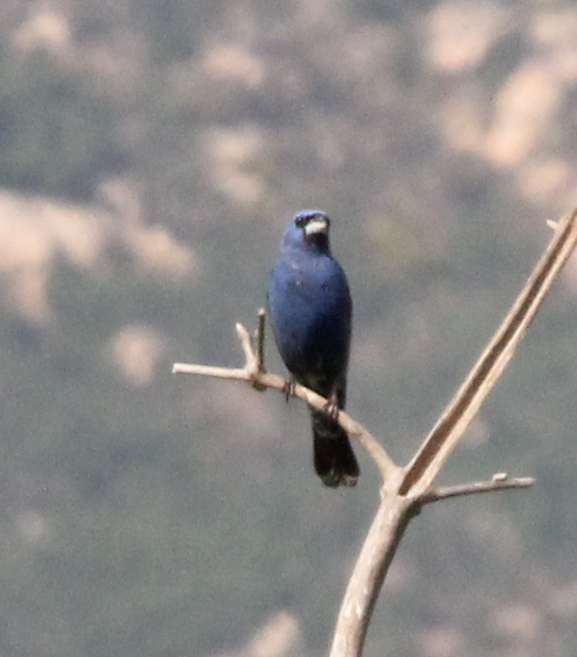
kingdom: Animalia
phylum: Chordata
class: Aves
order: Passeriformes
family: Cardinalidae
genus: Passerina
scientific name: Passerina caerulea
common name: Blue grosbeak
